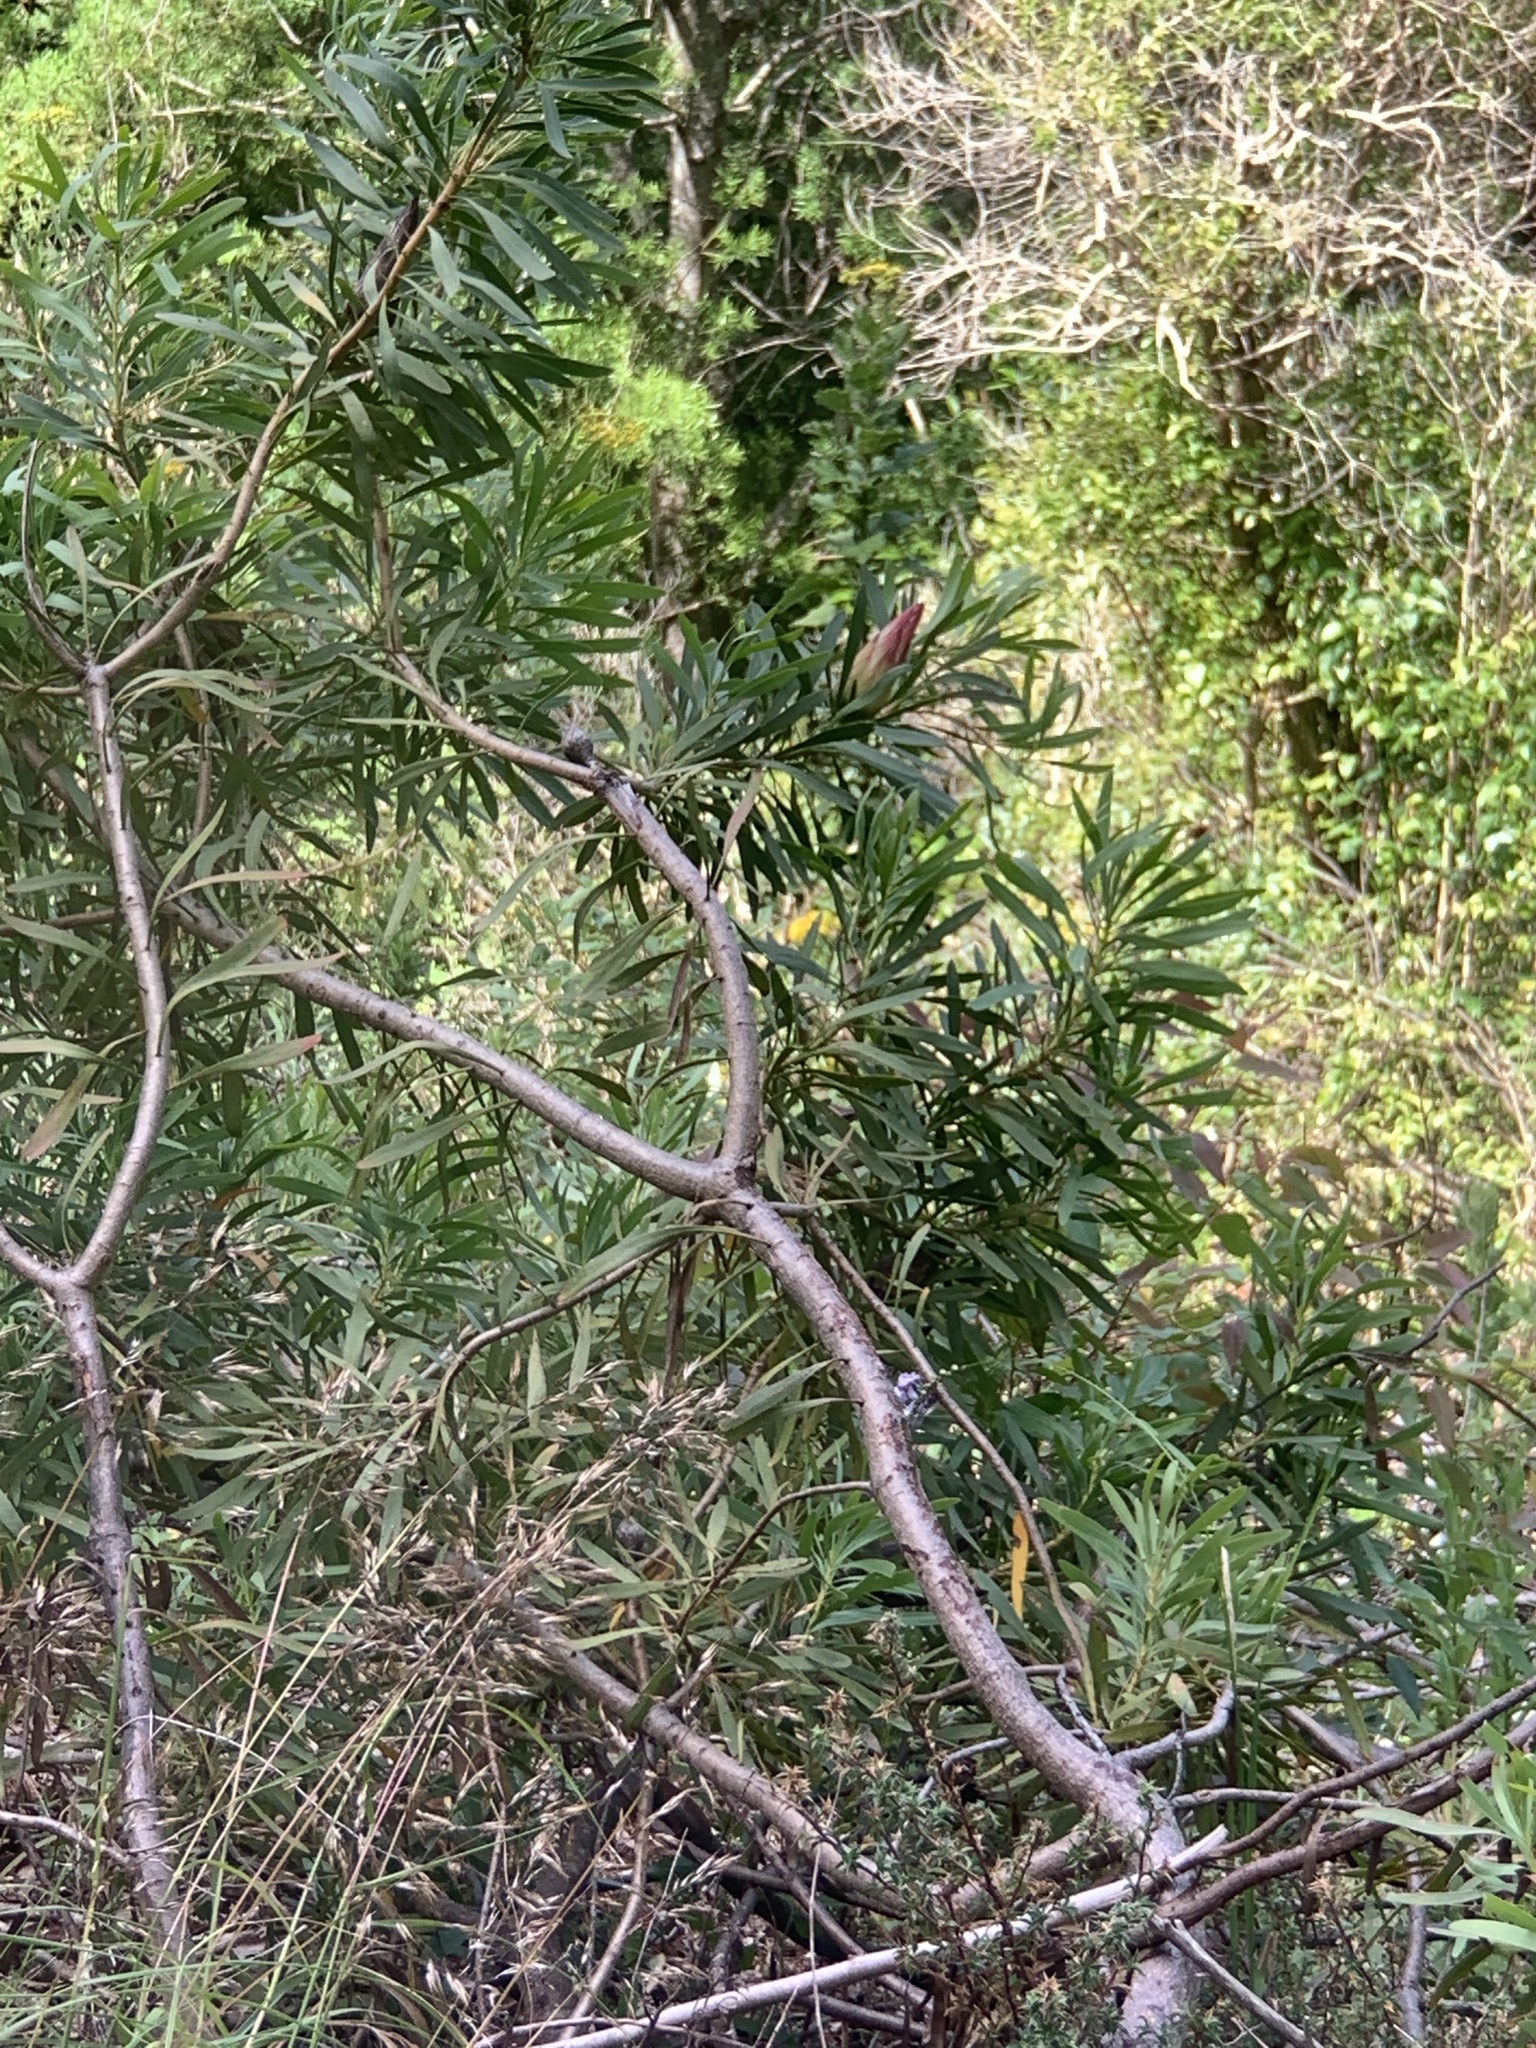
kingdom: Plantae
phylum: Tracheophyta
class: Magnoliopsida
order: Proteales
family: Proteaceae
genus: Protea
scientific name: Protea repens
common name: Sugarbush
